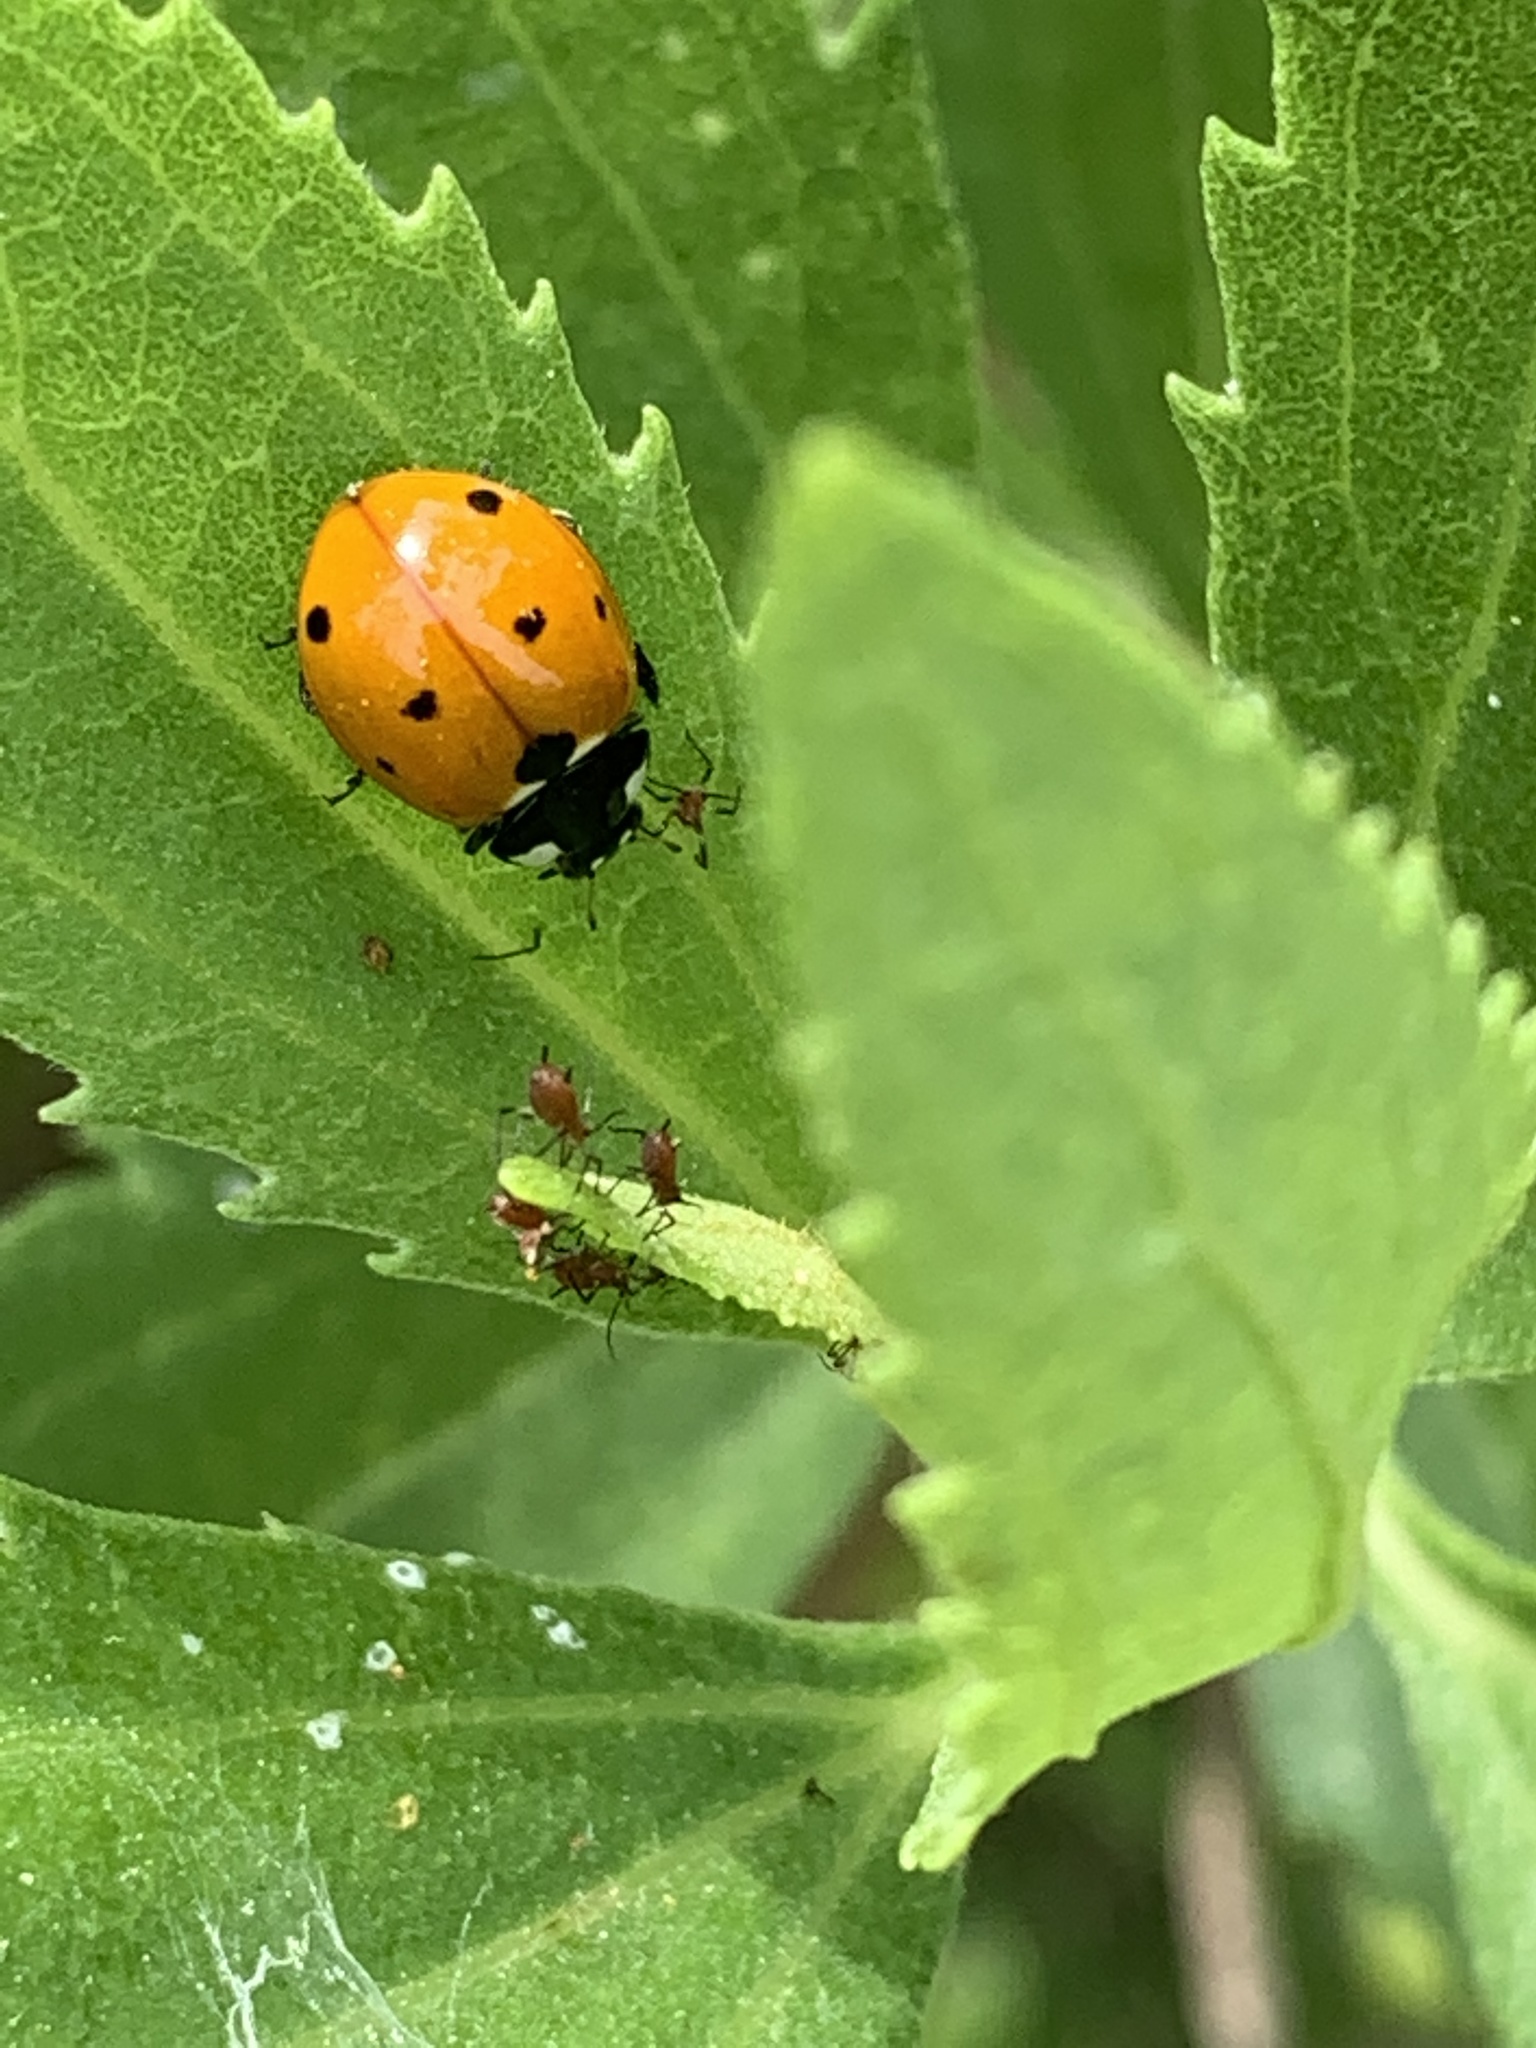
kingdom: Animalia
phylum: Arthropoda
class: Insecta
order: Coleoptera
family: Coccinellidae
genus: Coccinella
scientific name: Coccinella septempunctata
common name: Sevenspotted lady beetle
